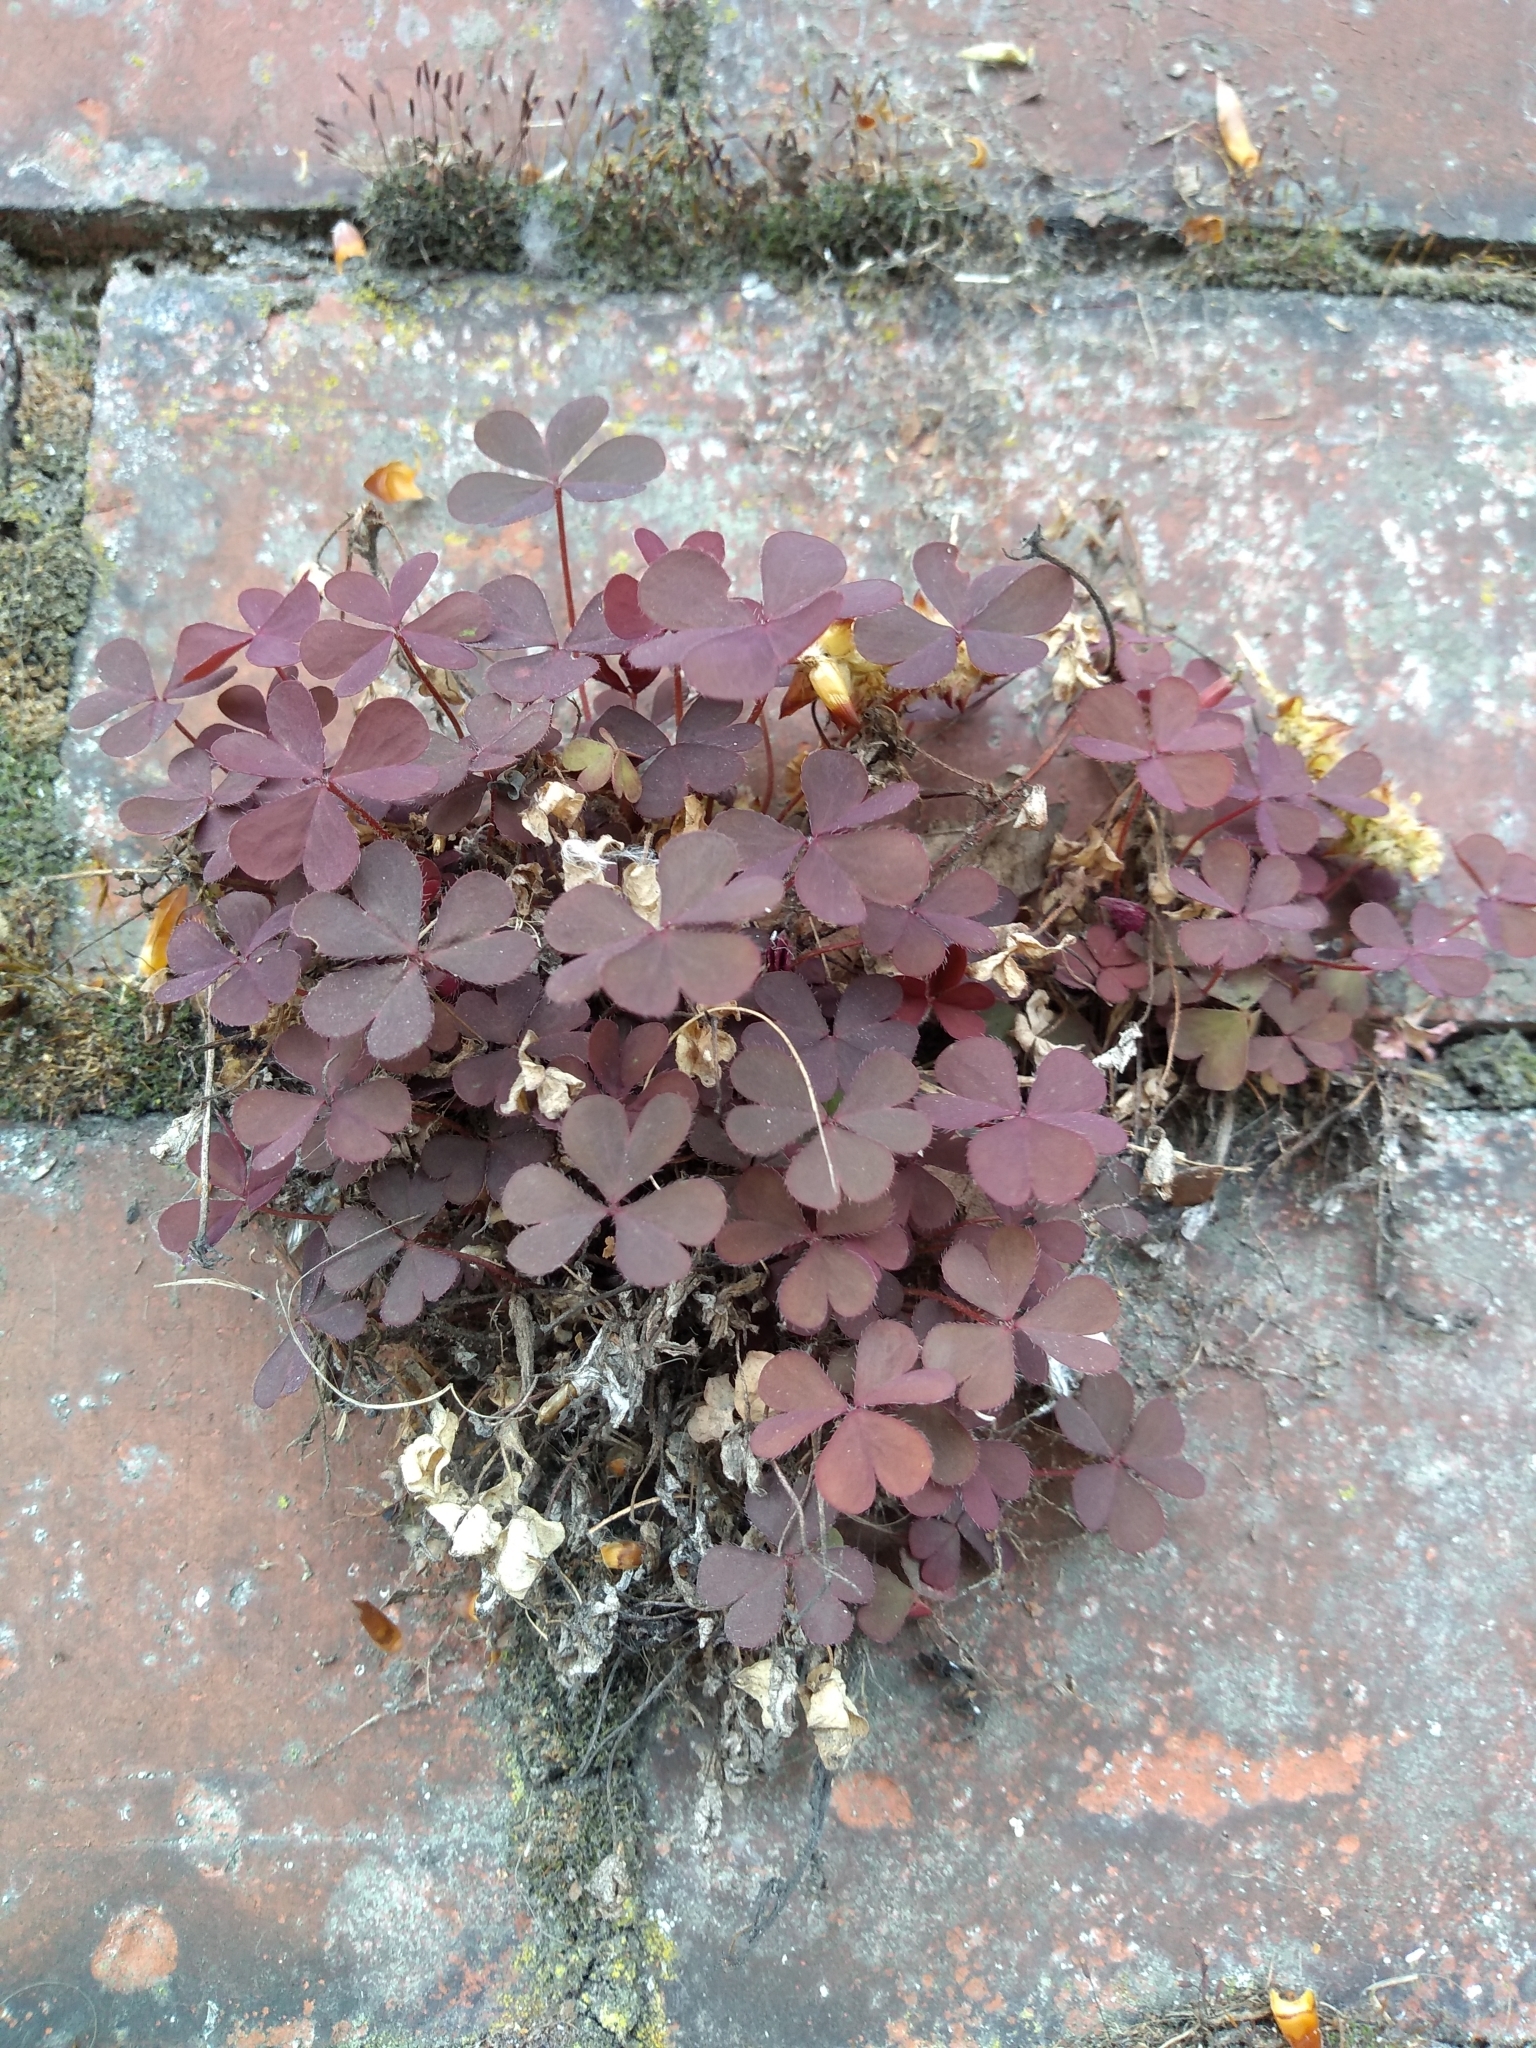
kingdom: Plantae
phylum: Tracheophyta
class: Magnoliopsida
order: Oxalidales
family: Oxalidaceae
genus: Oxalis
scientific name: Oxalis corniculata
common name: Procumbent yellow-sorrel
